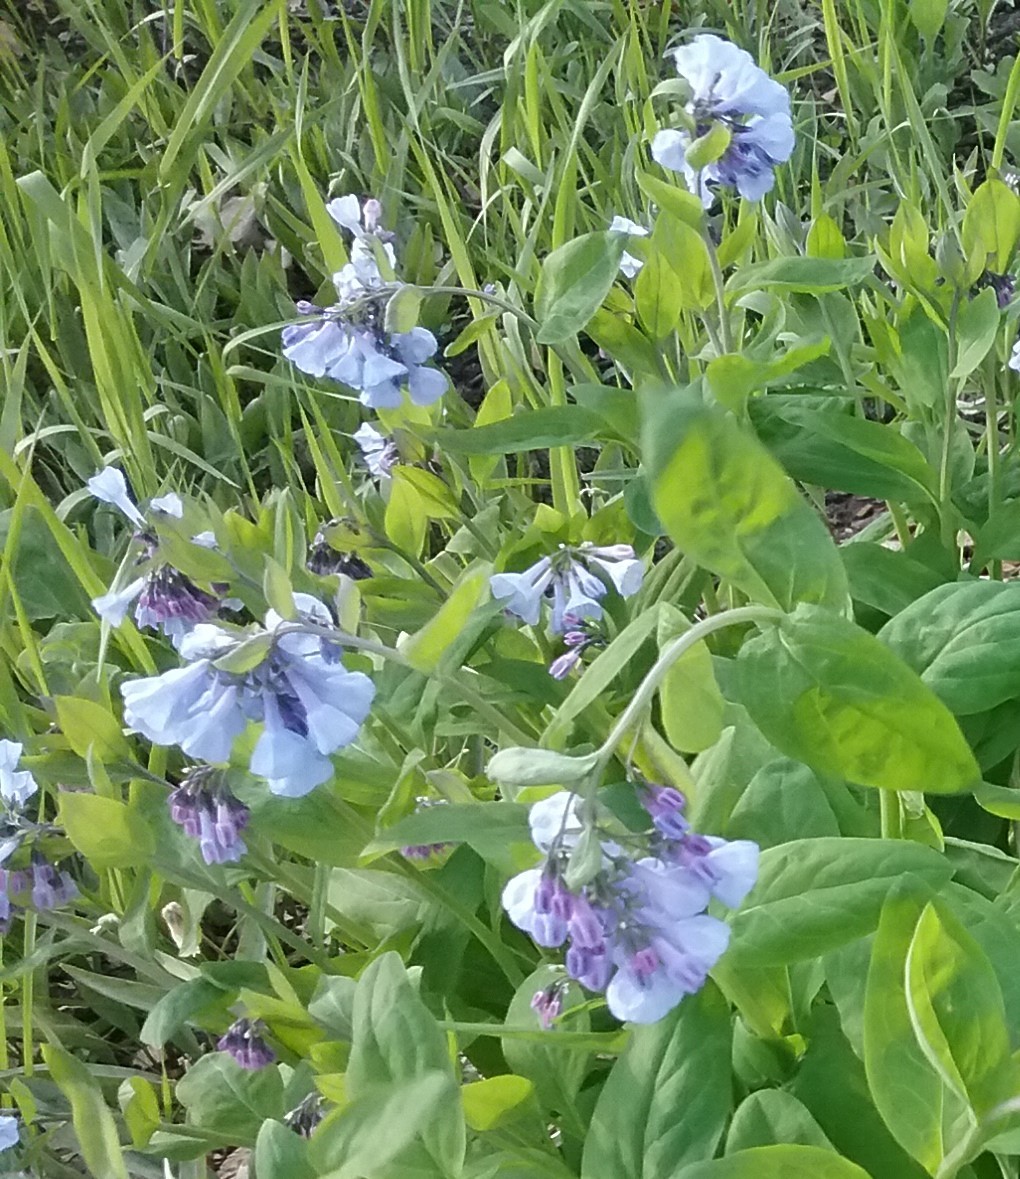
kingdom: Plantae
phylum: Tracheophyta
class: Magnoliopsida
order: Boraginales
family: Boraginaceae
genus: Mertensia
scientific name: Mertensia virginica
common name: Virginia bluebells
